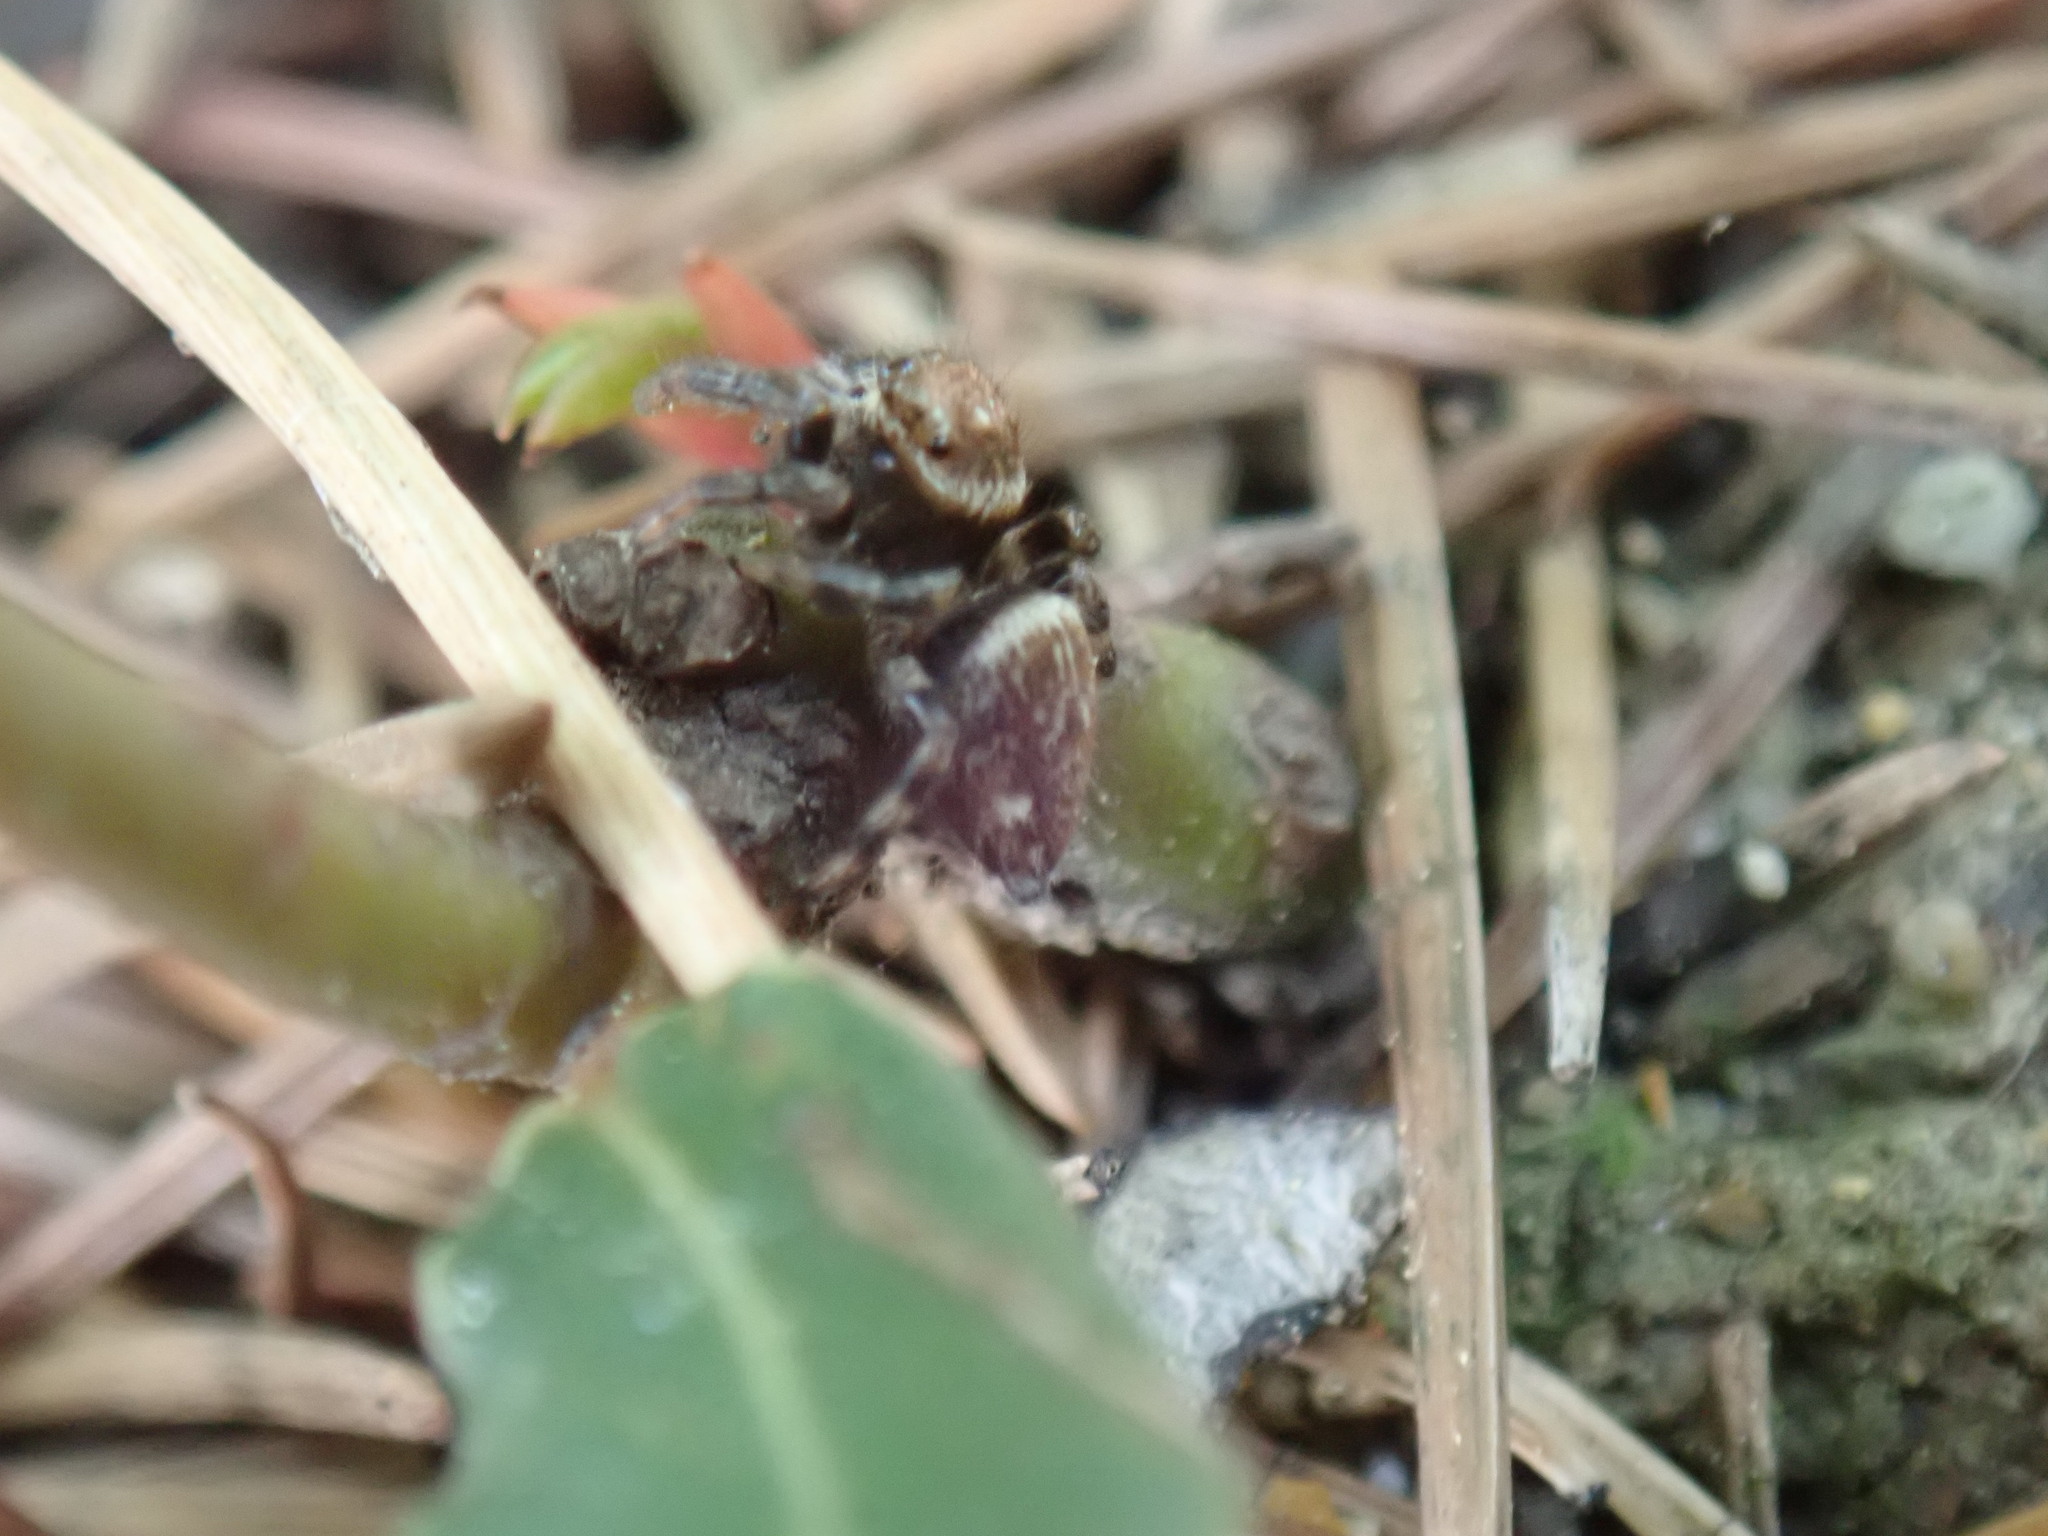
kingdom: Animalia
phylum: Arthropoda
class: Arachnida
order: Araneae
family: Salticidae
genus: Evarcha
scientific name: Evarcha jucunda
